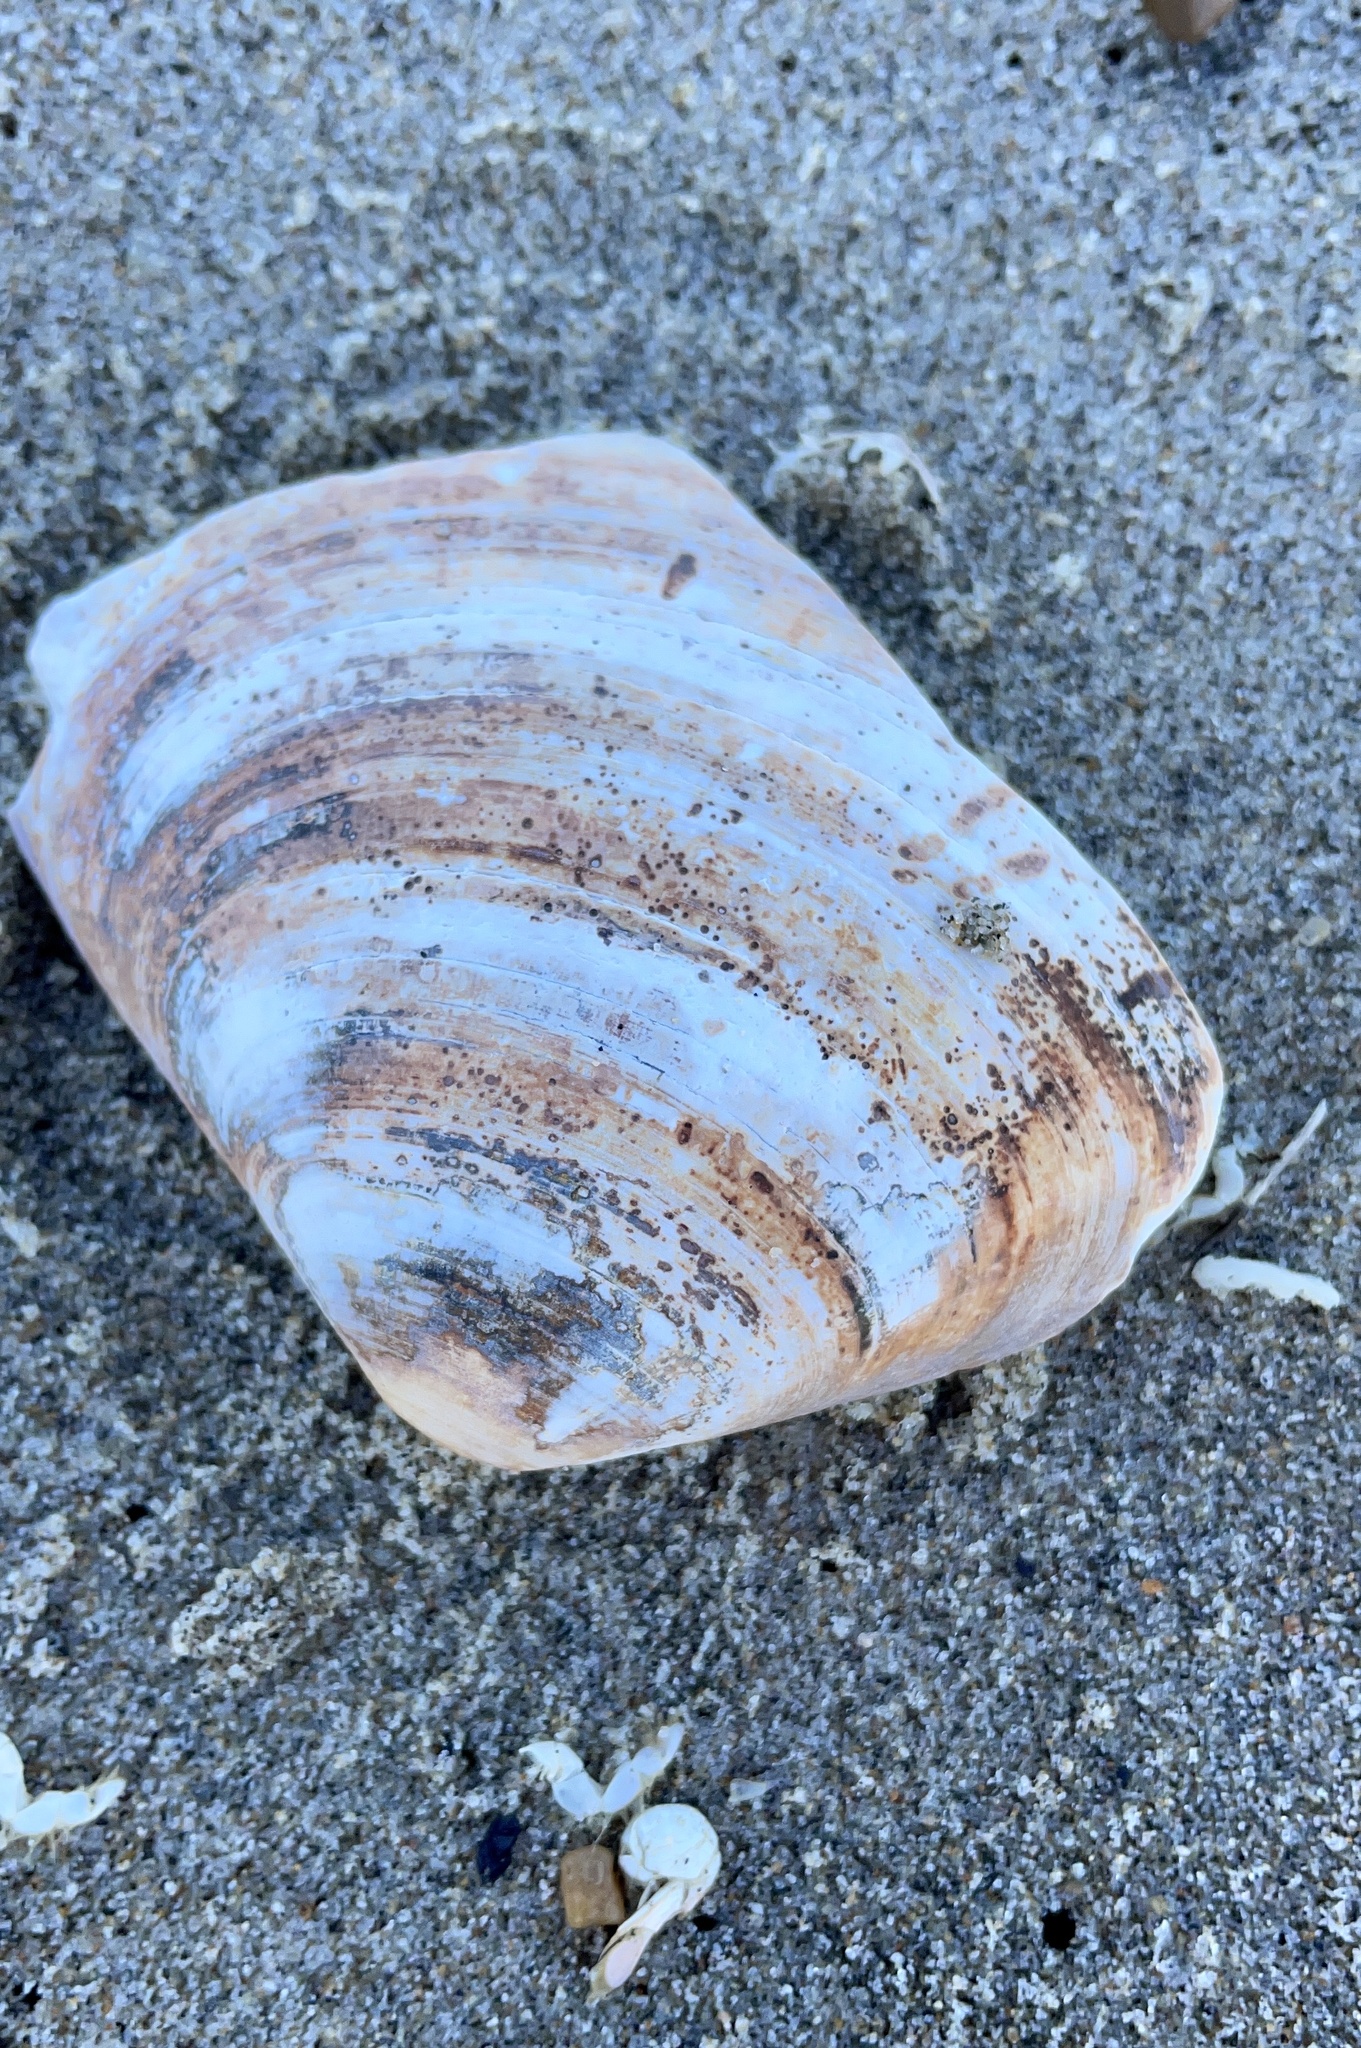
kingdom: Animalia
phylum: Mollusca
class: Bivalvia
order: Venerida
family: Veneridae
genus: Tivela
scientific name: Tivela stultorum
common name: Pismo clam
